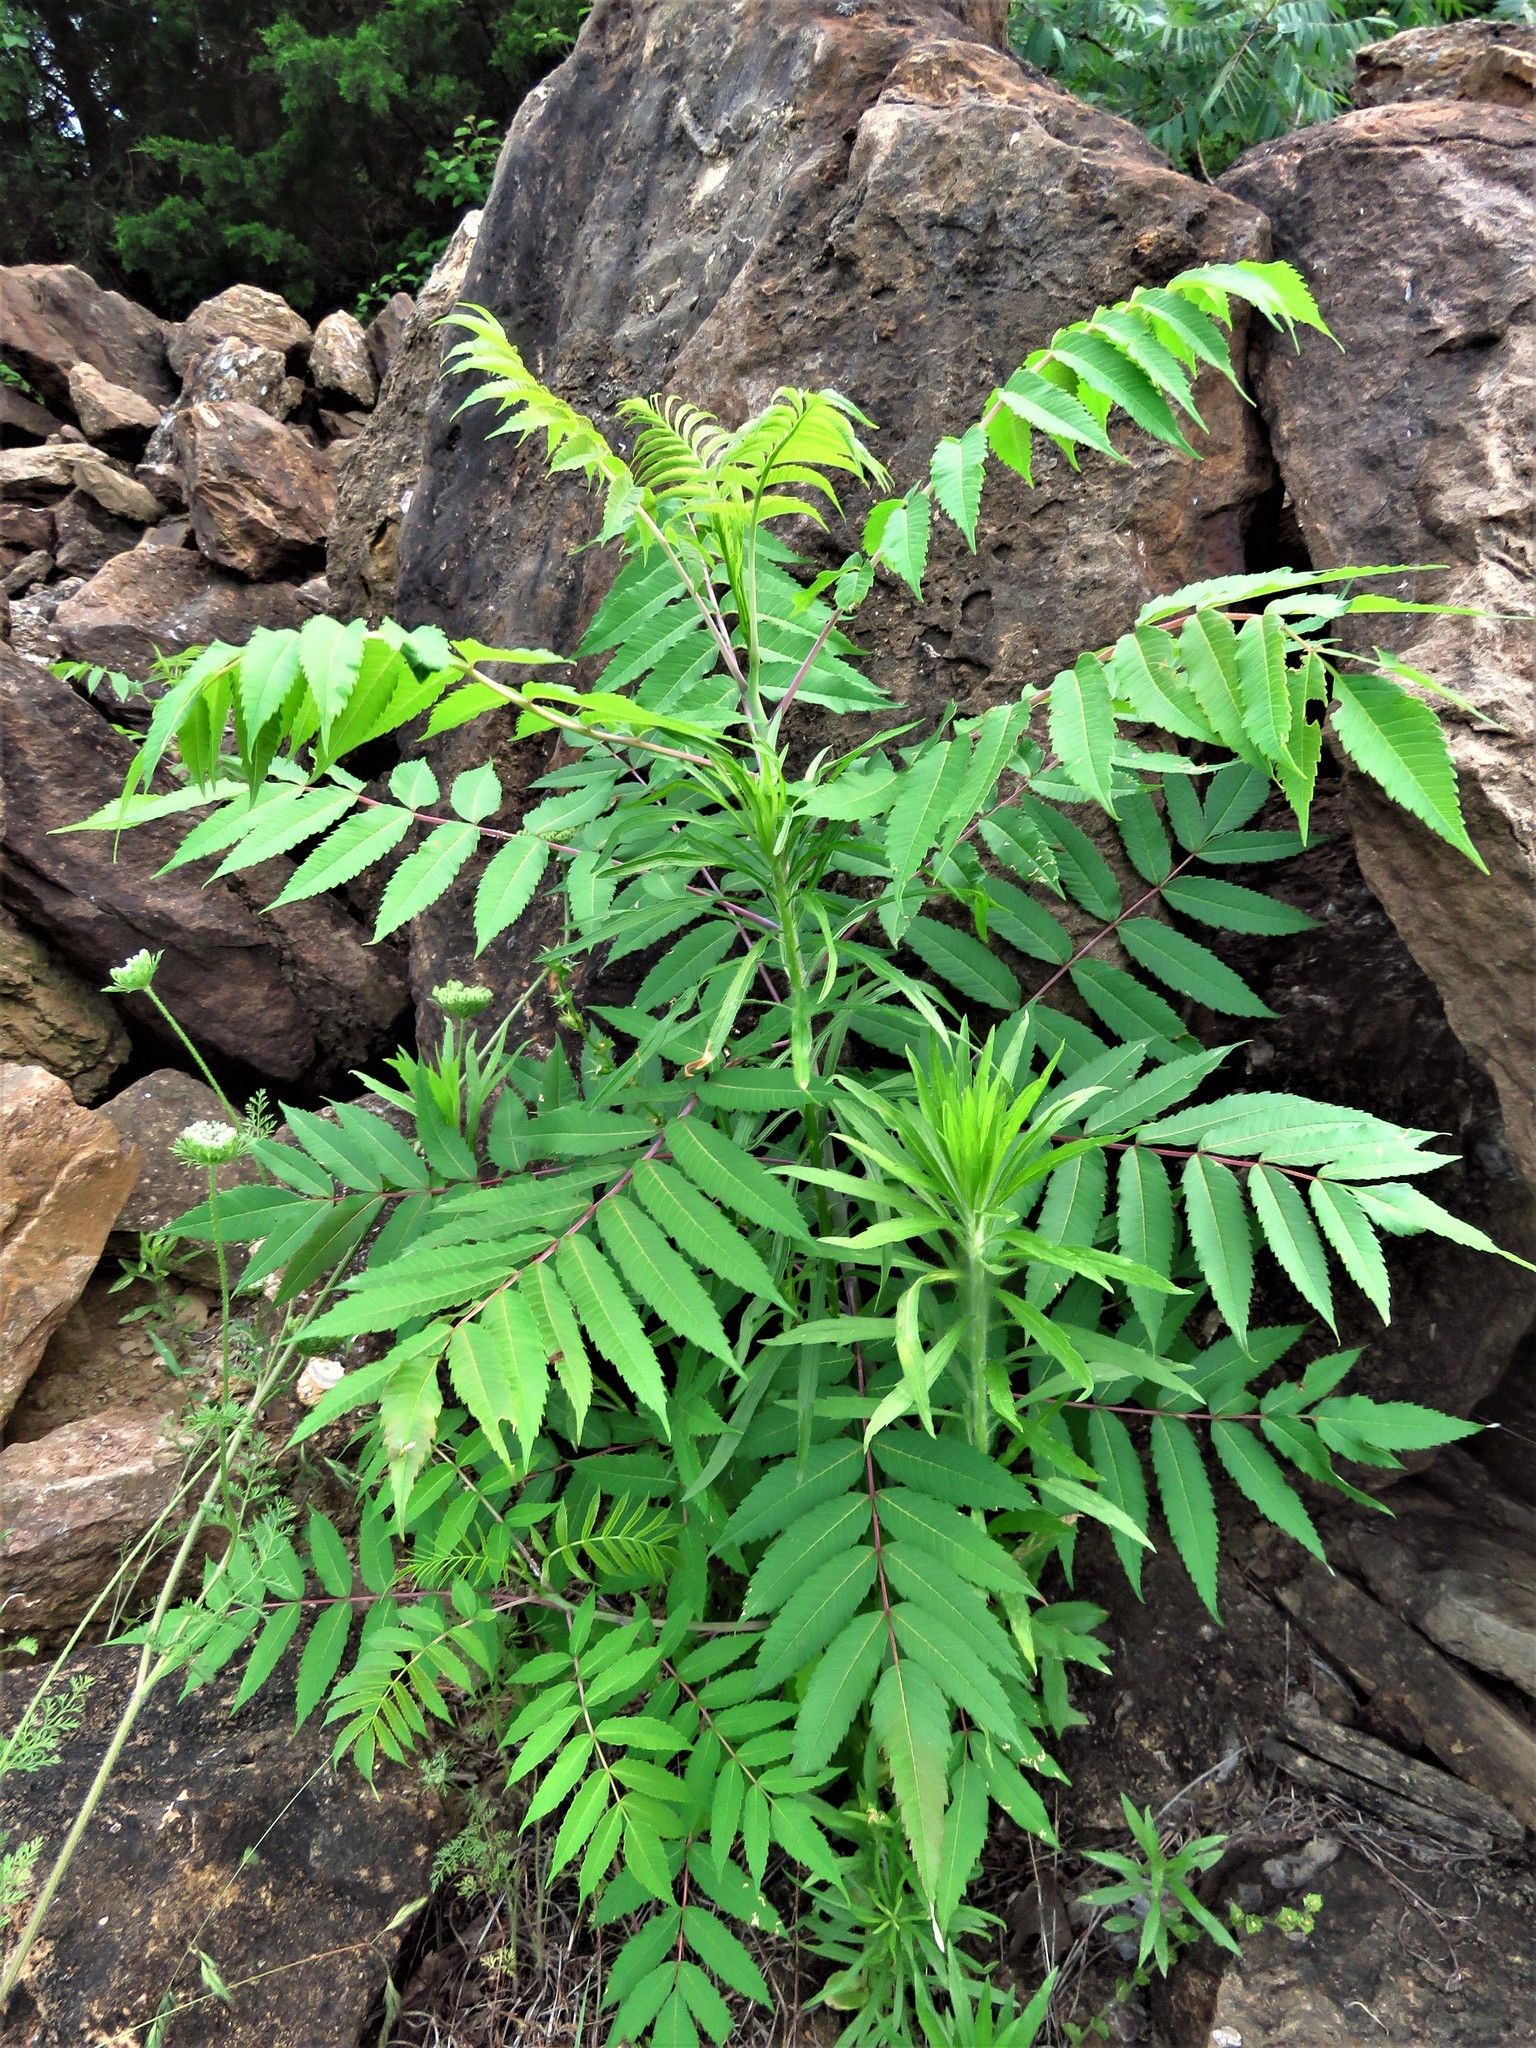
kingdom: Plantae
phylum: Tracheophyta
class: Magnoliopsida
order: Sapindales
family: Anacardiaceae
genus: Rhus
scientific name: Rhus glabra
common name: Scarlet sumac
